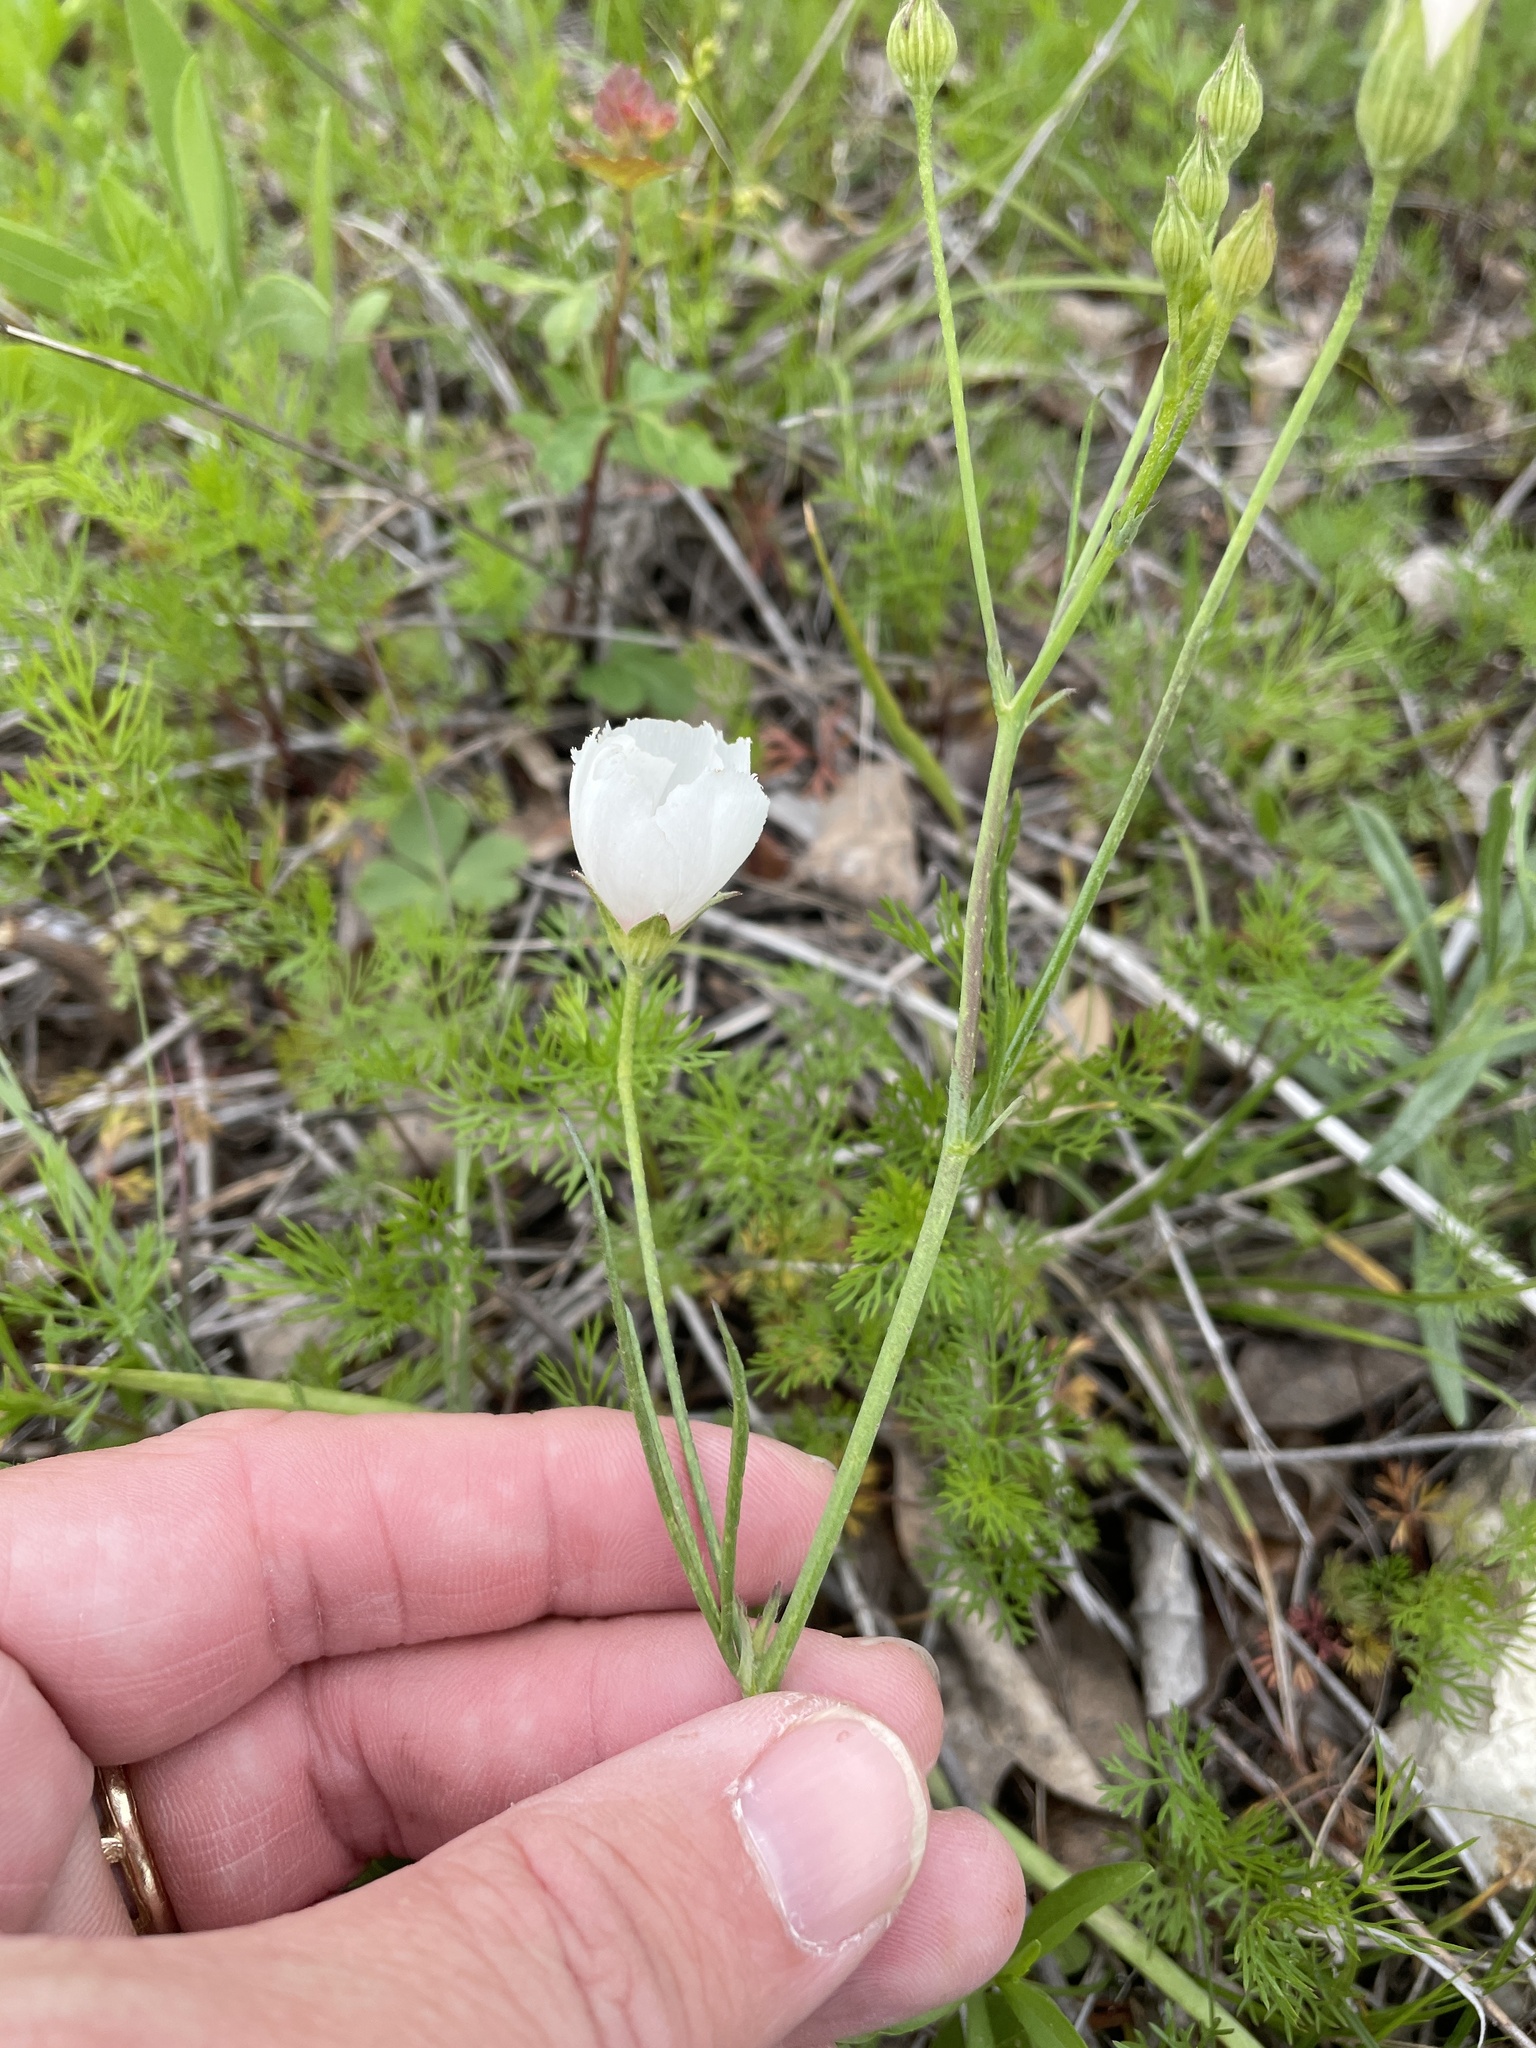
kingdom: Plantae
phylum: Tracheophyta
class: Magnoliopsida
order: Malvales
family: Malvaceae
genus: Callirhoe
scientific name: Callirhoe pedata
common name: Finger poppy-mallow
